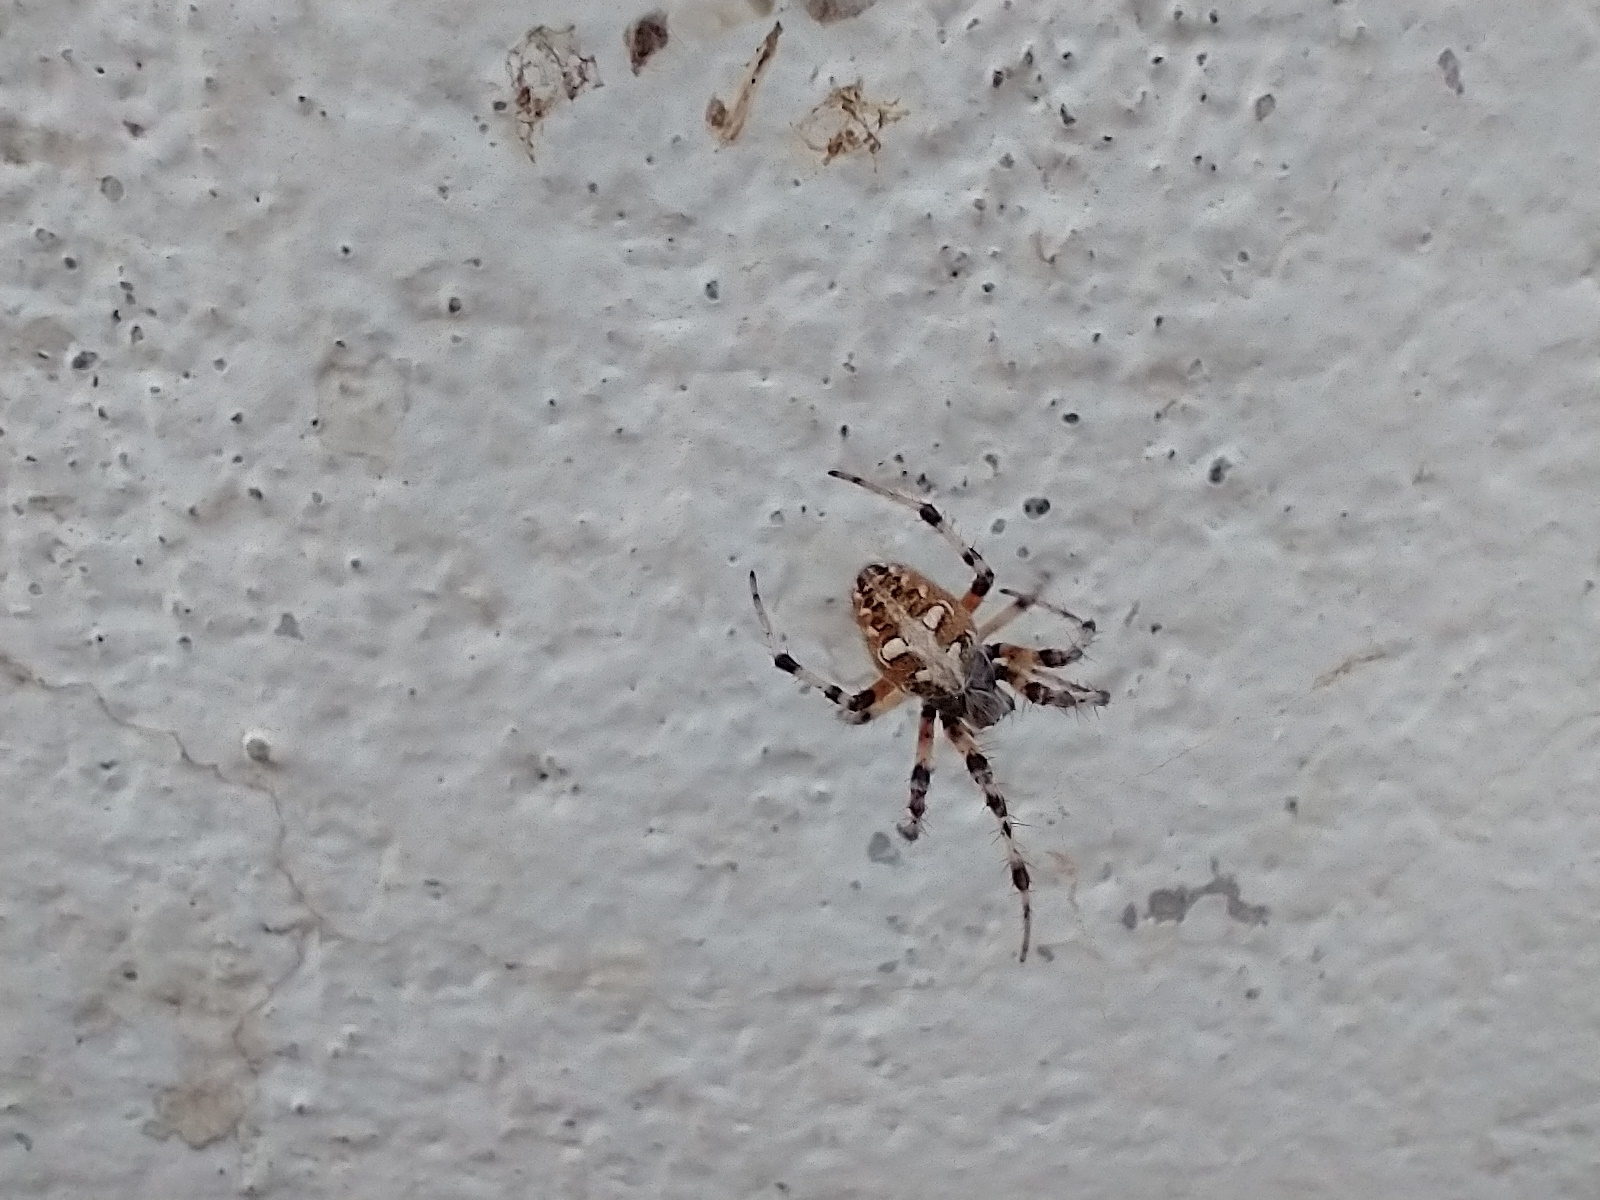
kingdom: Animalia
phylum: Arthropoda
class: Arachnida
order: Araneae
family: Araneidae
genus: Metepeira
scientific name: Metepeira
